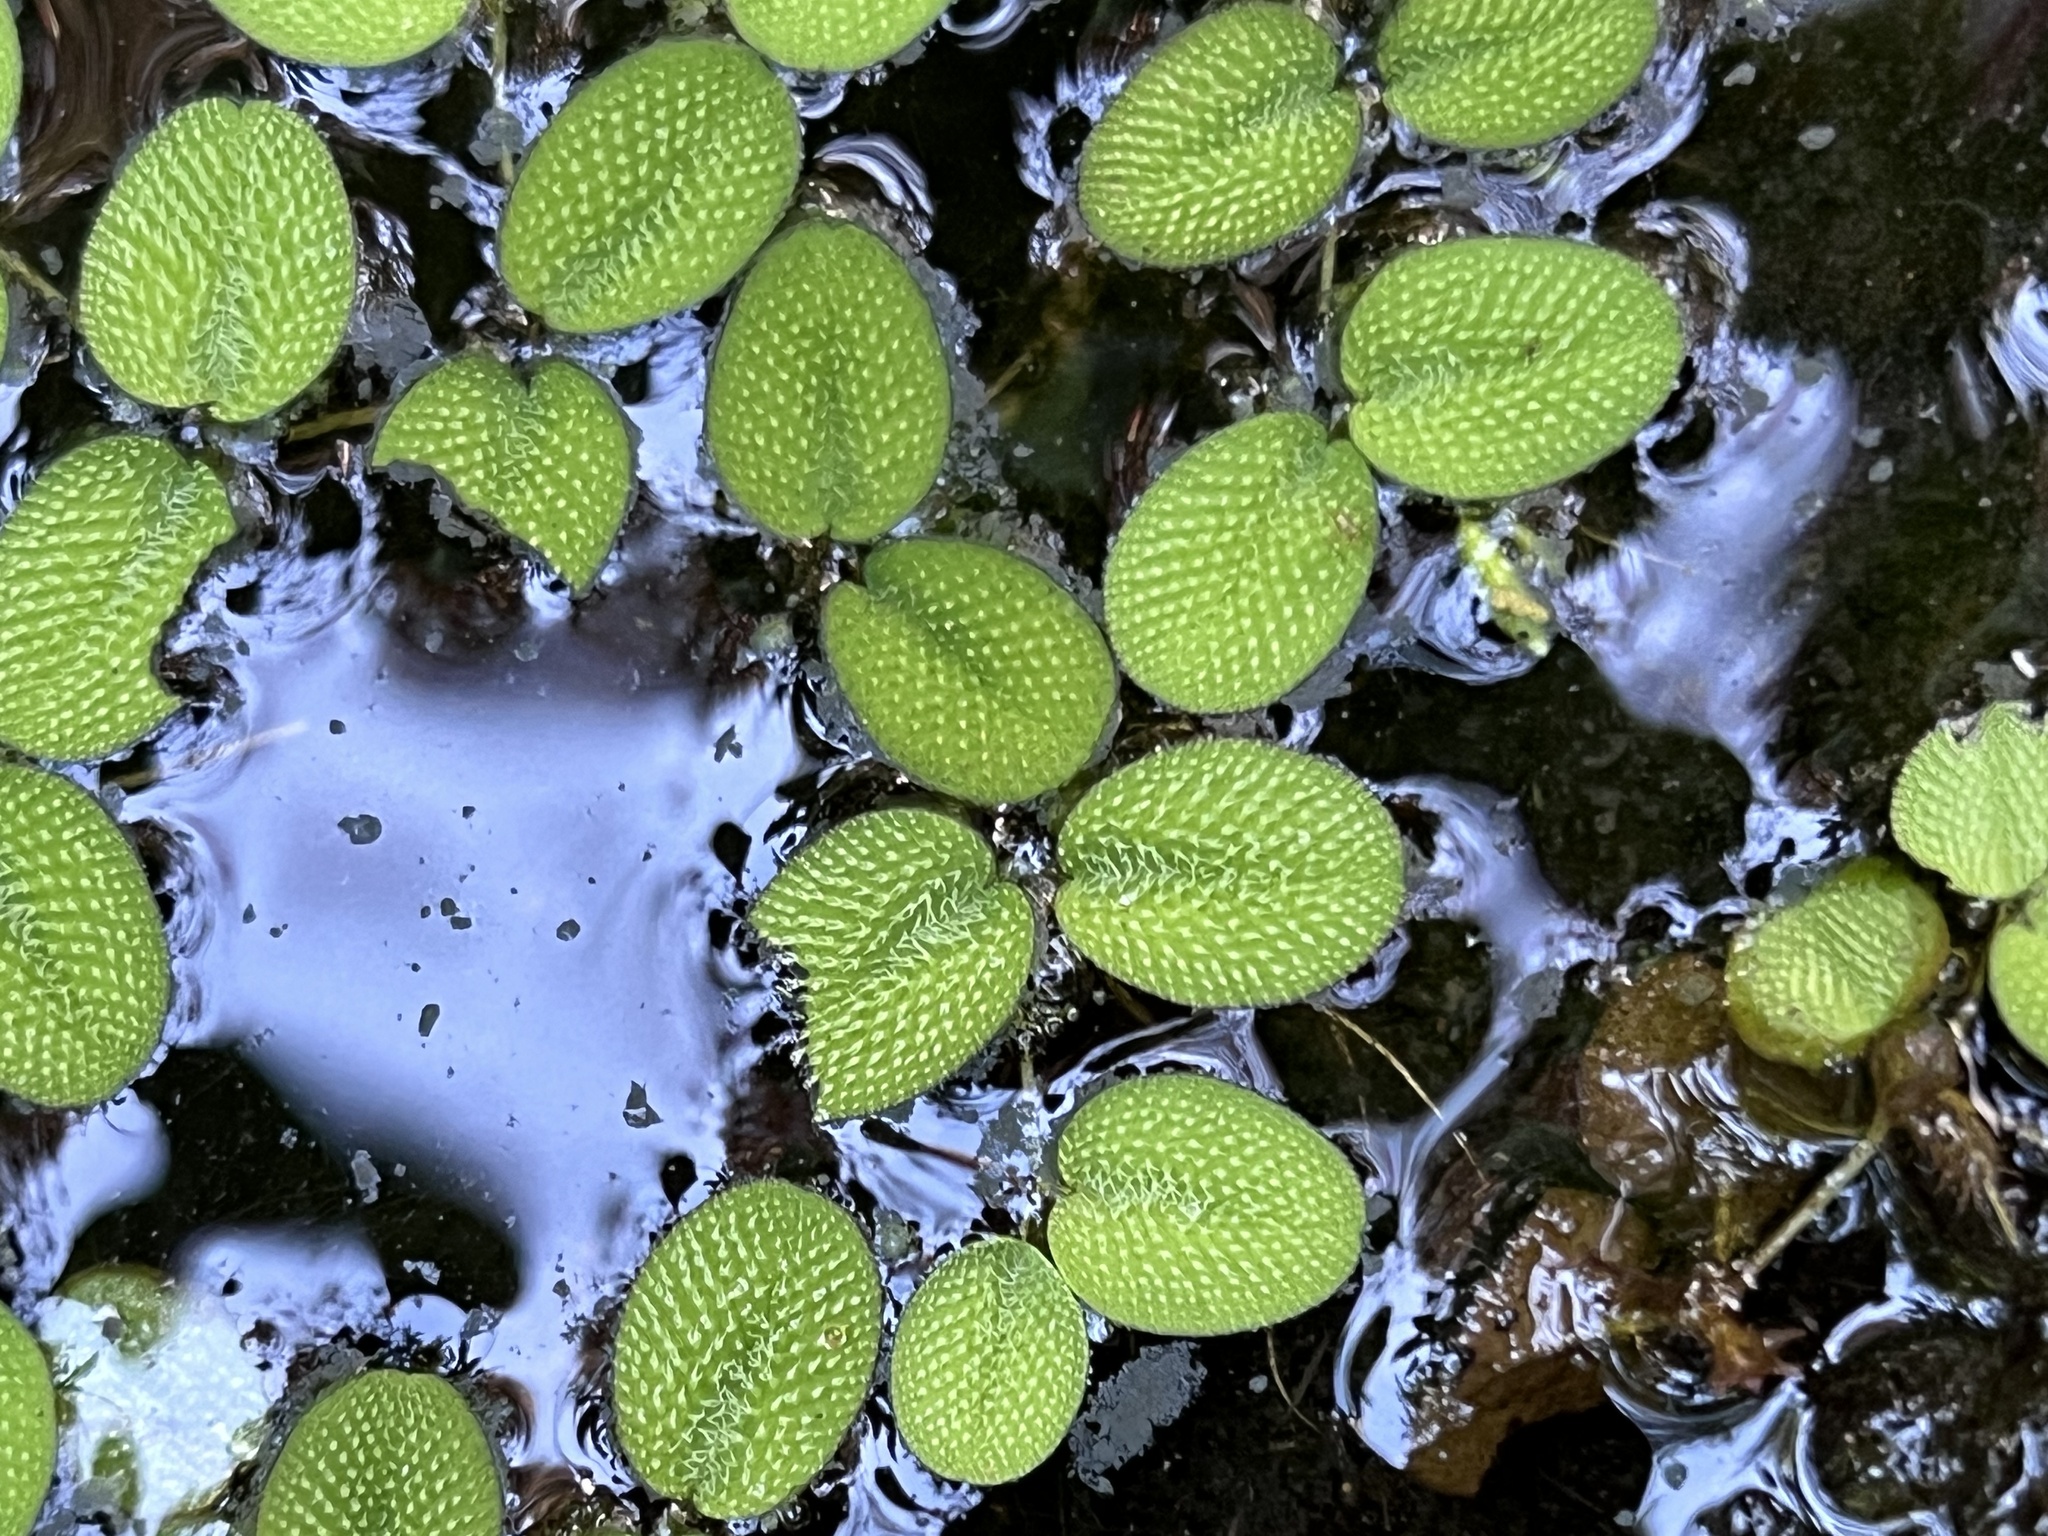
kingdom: Plantae
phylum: Tracheophyta
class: Polypodiopsida
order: Salviniales
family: Salviniaceae
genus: Salvinia
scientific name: Salvinia minima
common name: Water spangles
